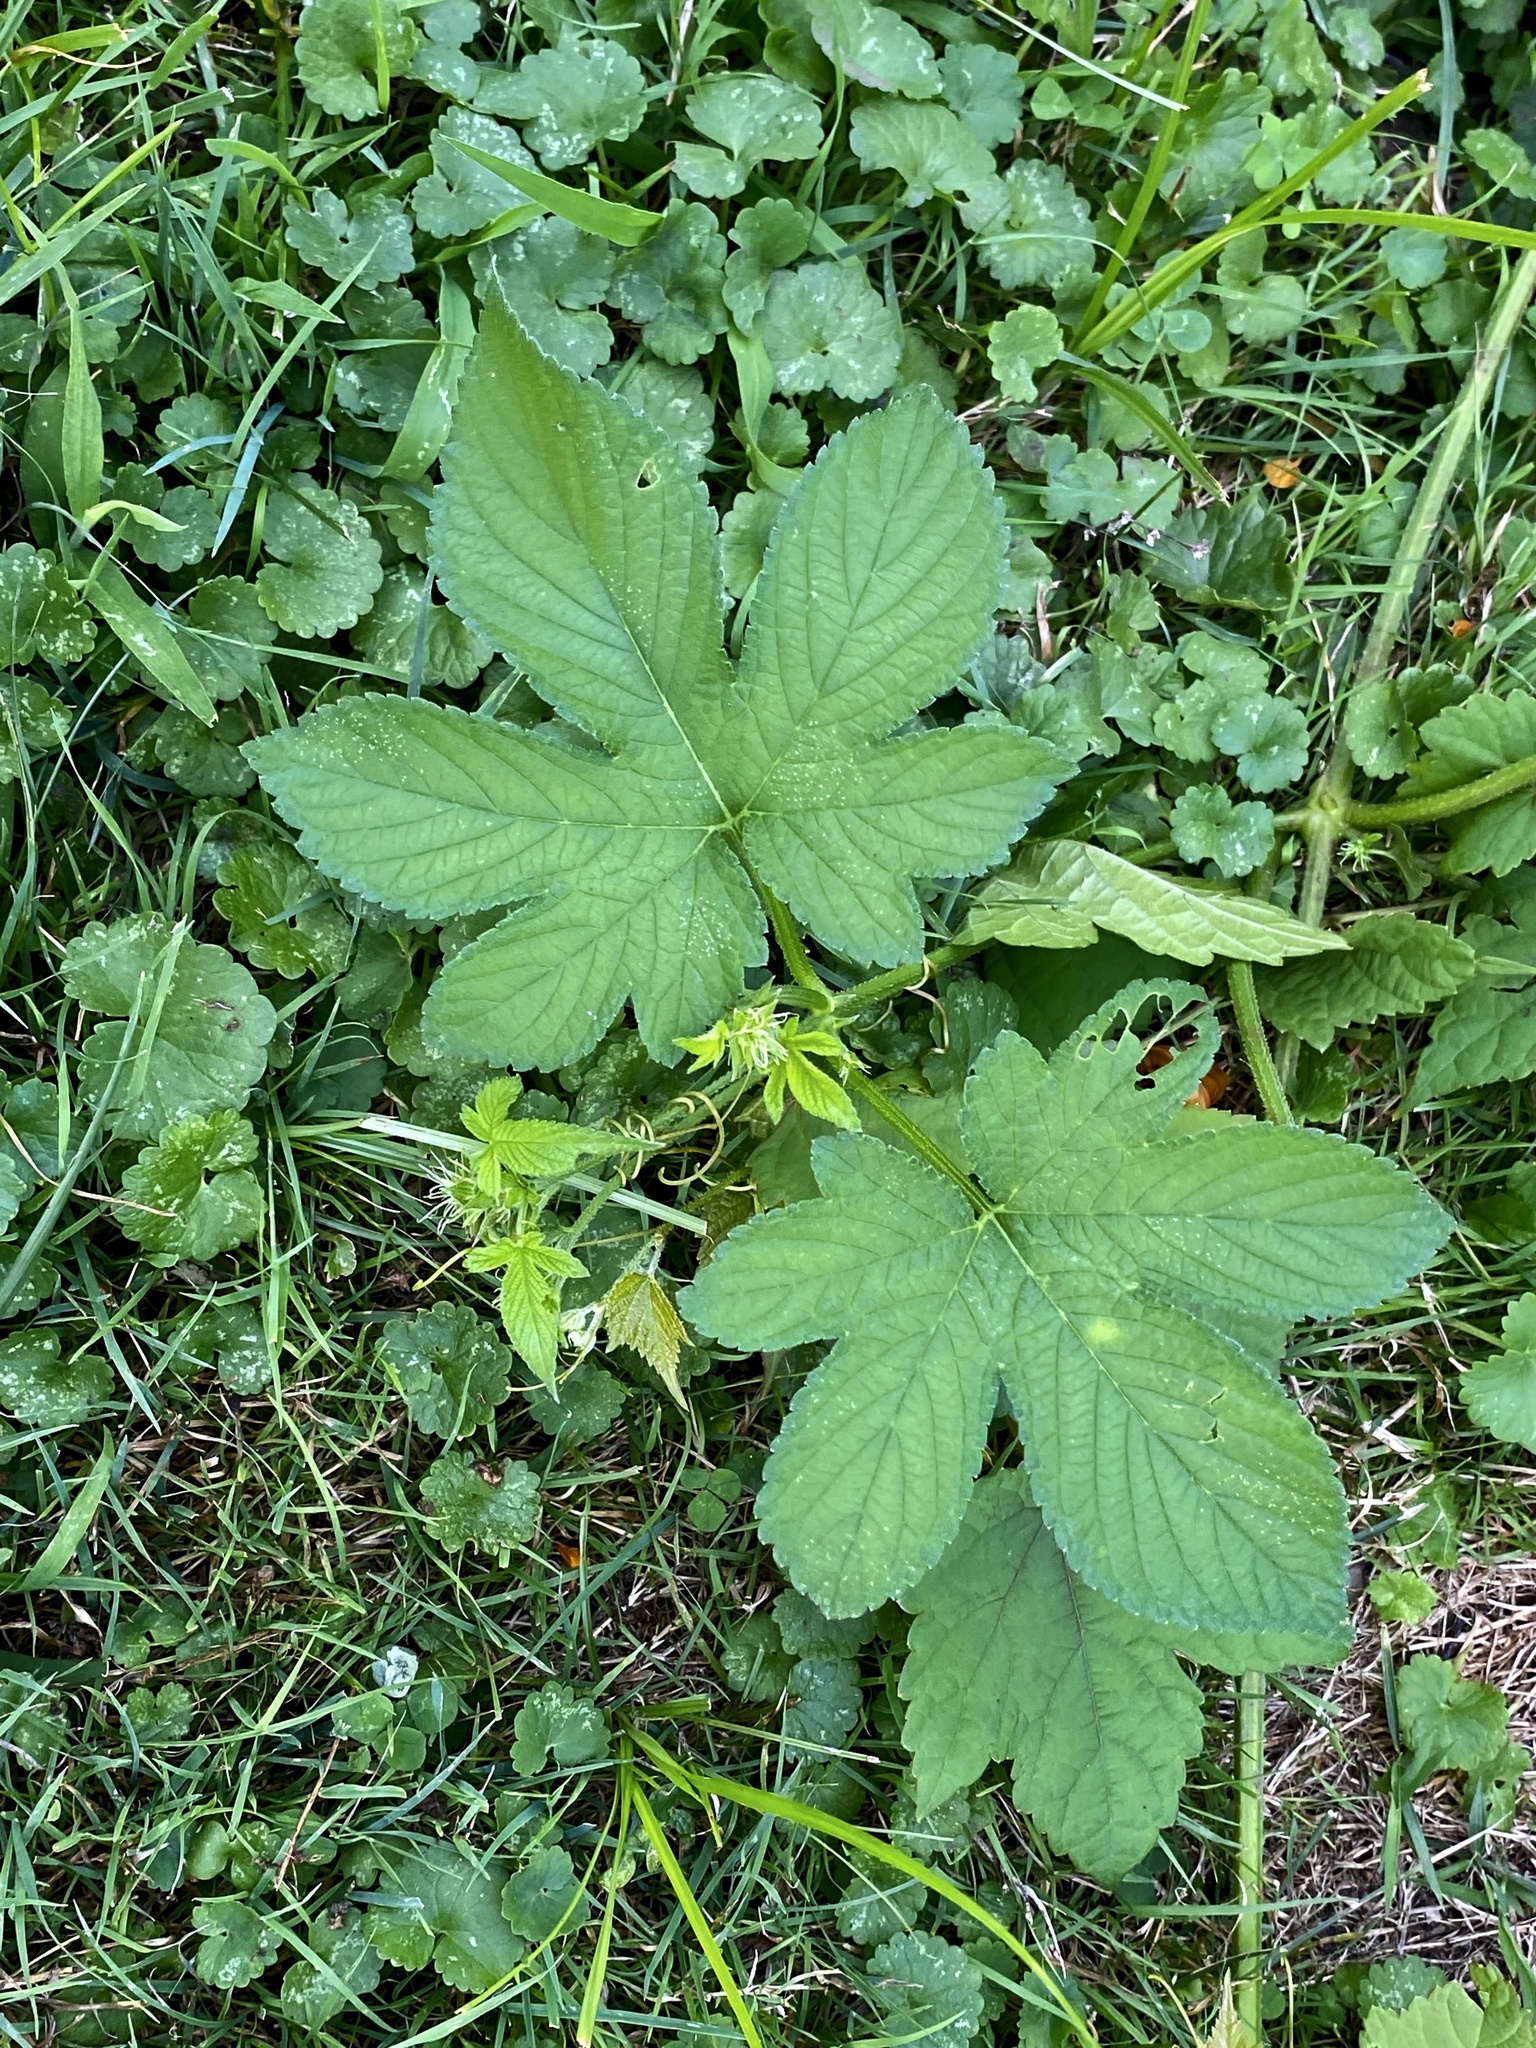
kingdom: Plantae
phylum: Tracheophyta
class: Magnoliopsida
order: Rosales
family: Cannabaceae
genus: Humulus
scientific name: Humulus scandens
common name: Japanese hop
